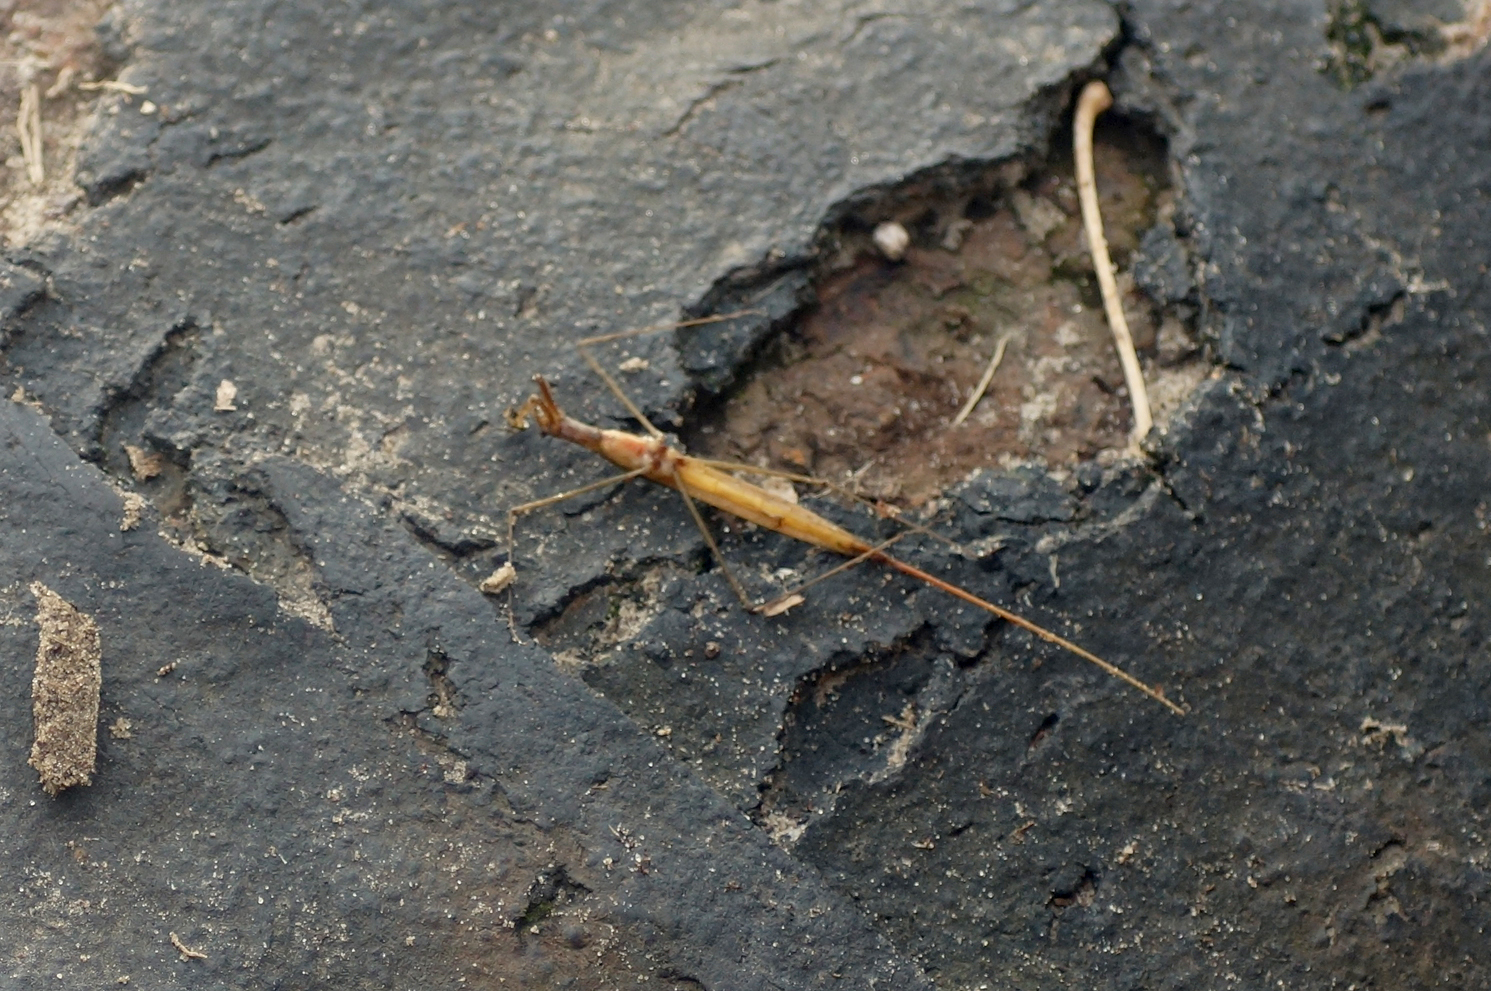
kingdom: Animalia
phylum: Arthropoda
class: Insecta
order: Hemiptera
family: Nepidae
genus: Ranatra
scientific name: Ranatra linearis
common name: Water stick insect
